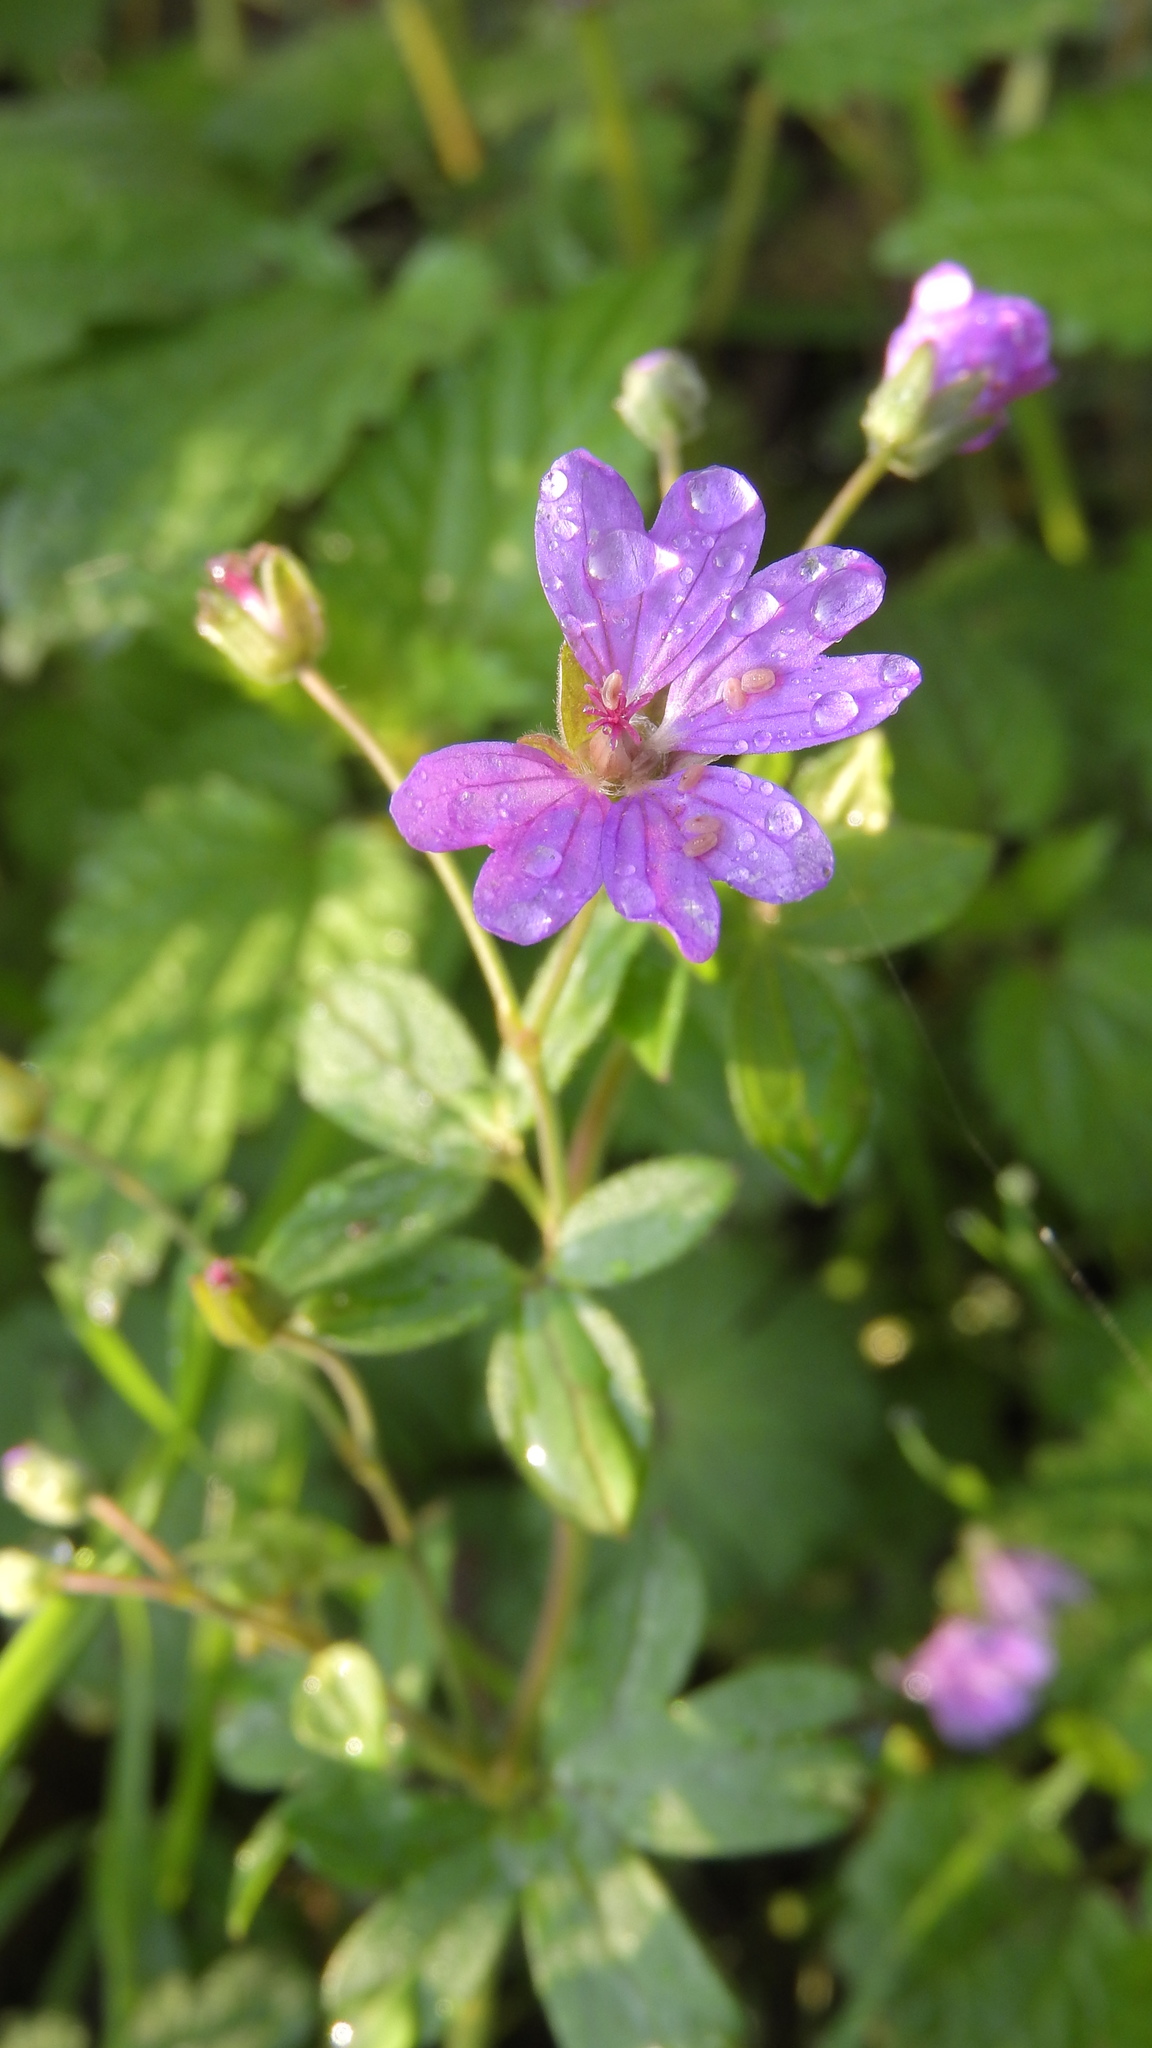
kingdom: Plantae
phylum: Tracheophyta
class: Magnoliopsida
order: Geraniales
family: Geraniaceae
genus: Geranium
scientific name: Geranium pyrenaicum
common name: Hedgerow crane's-bill
